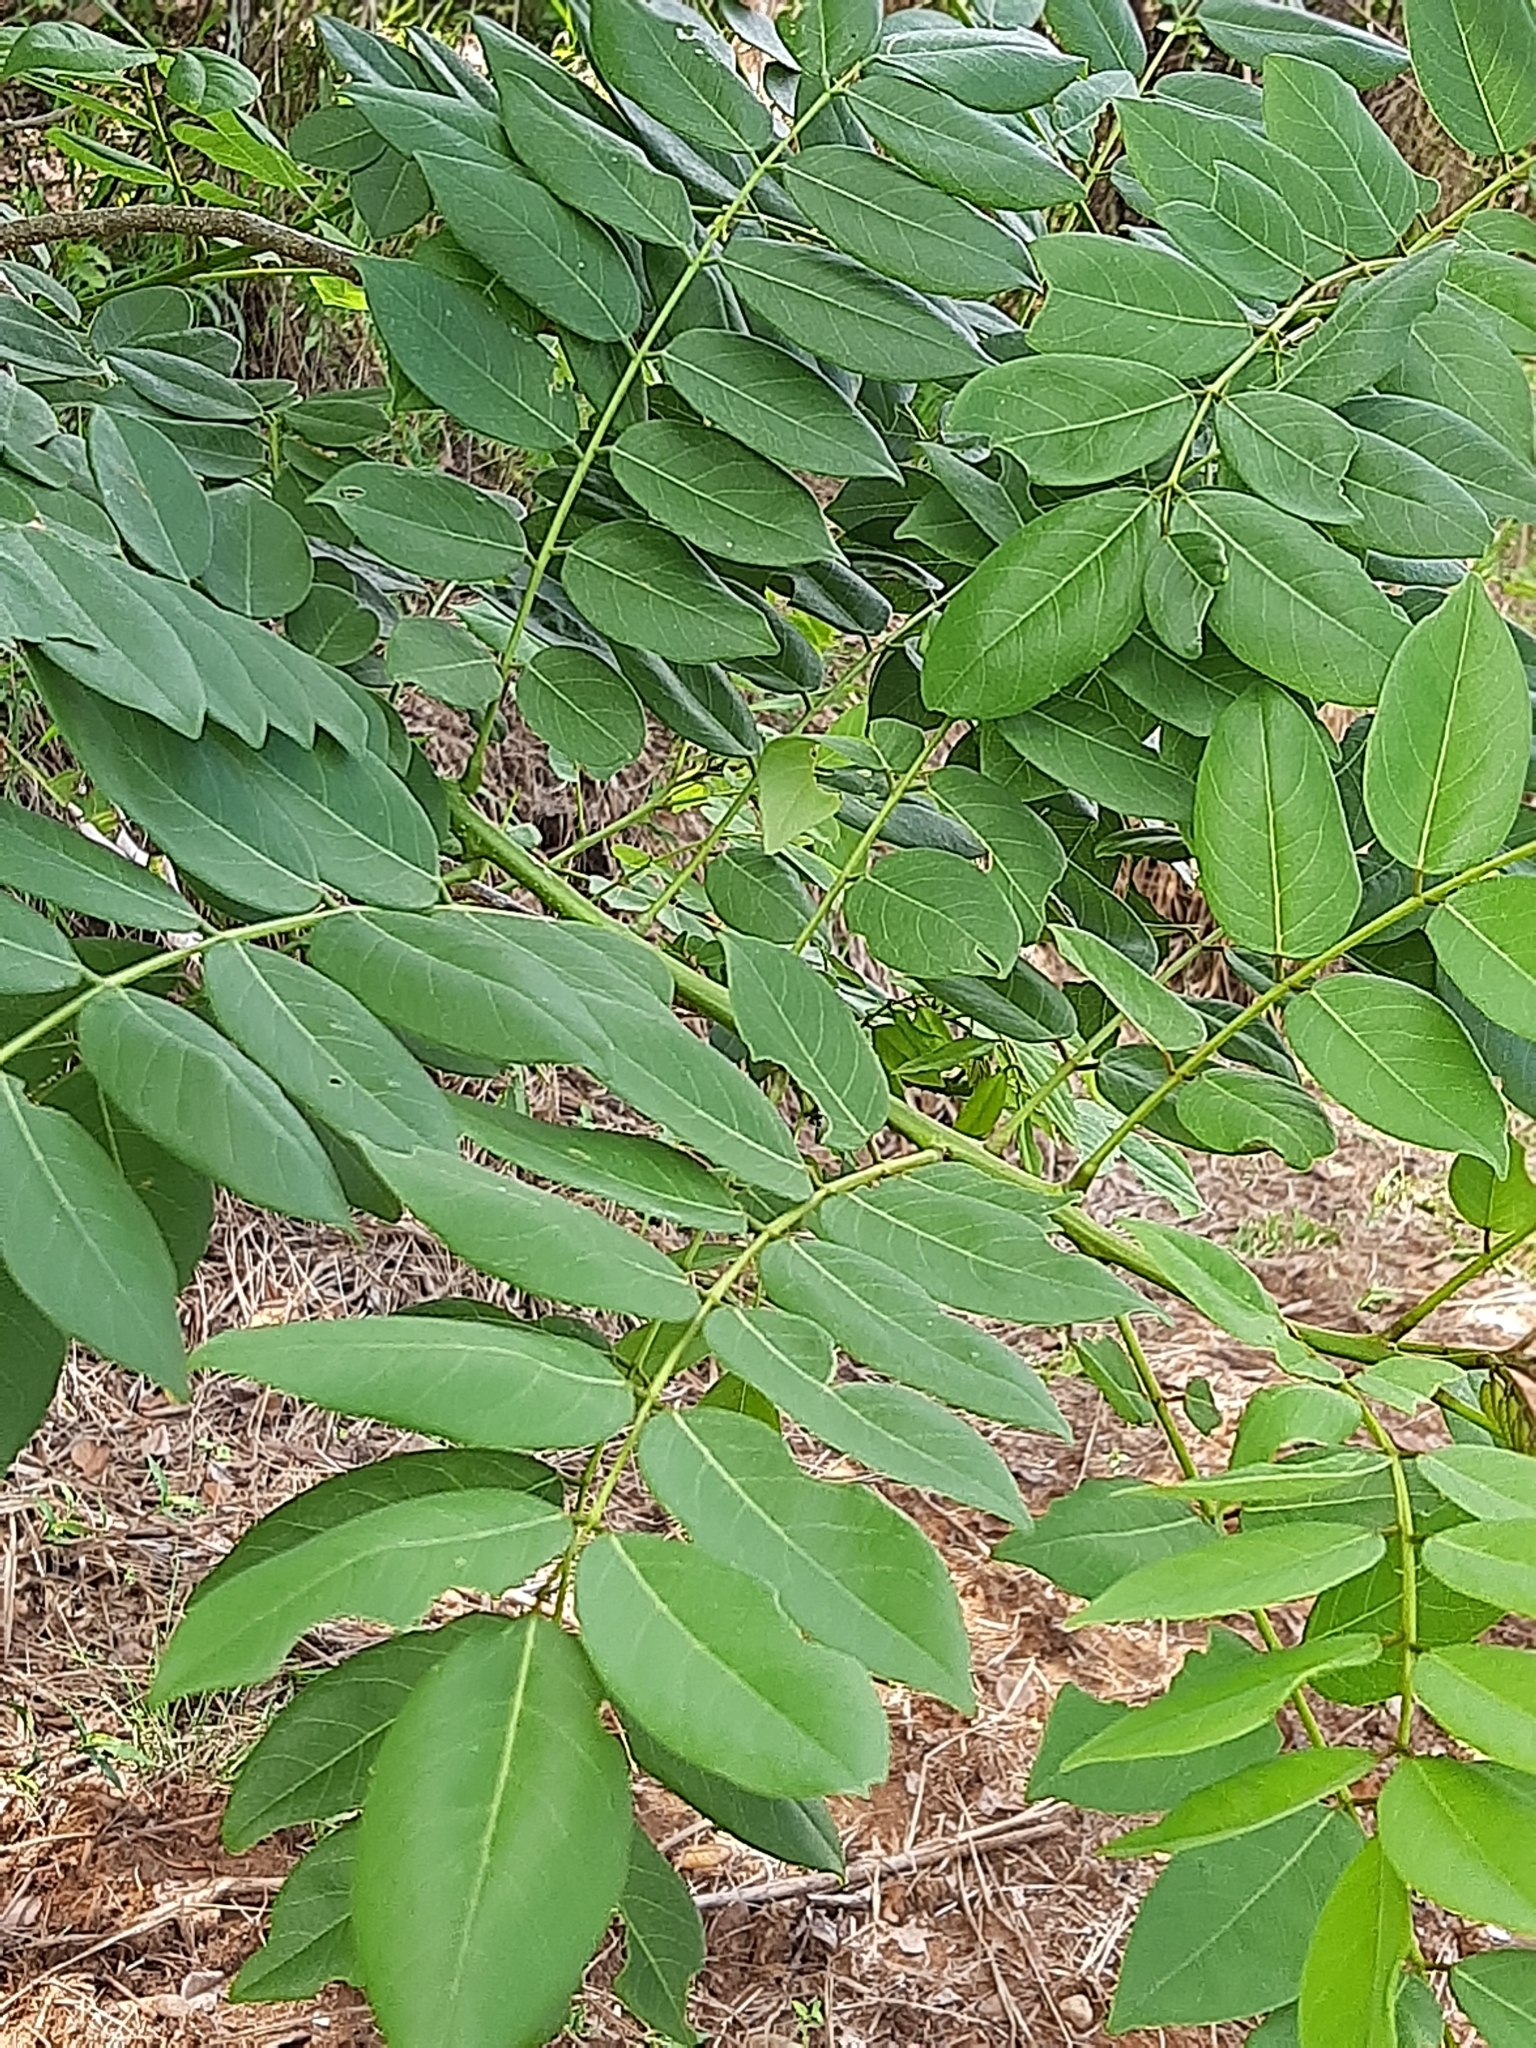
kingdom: Plantae
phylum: Tracheophyta
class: Magnoliopsida
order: Fabales
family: Fabaceae
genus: Gliricidia
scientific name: Gliricidia sepium
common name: Quickstick
